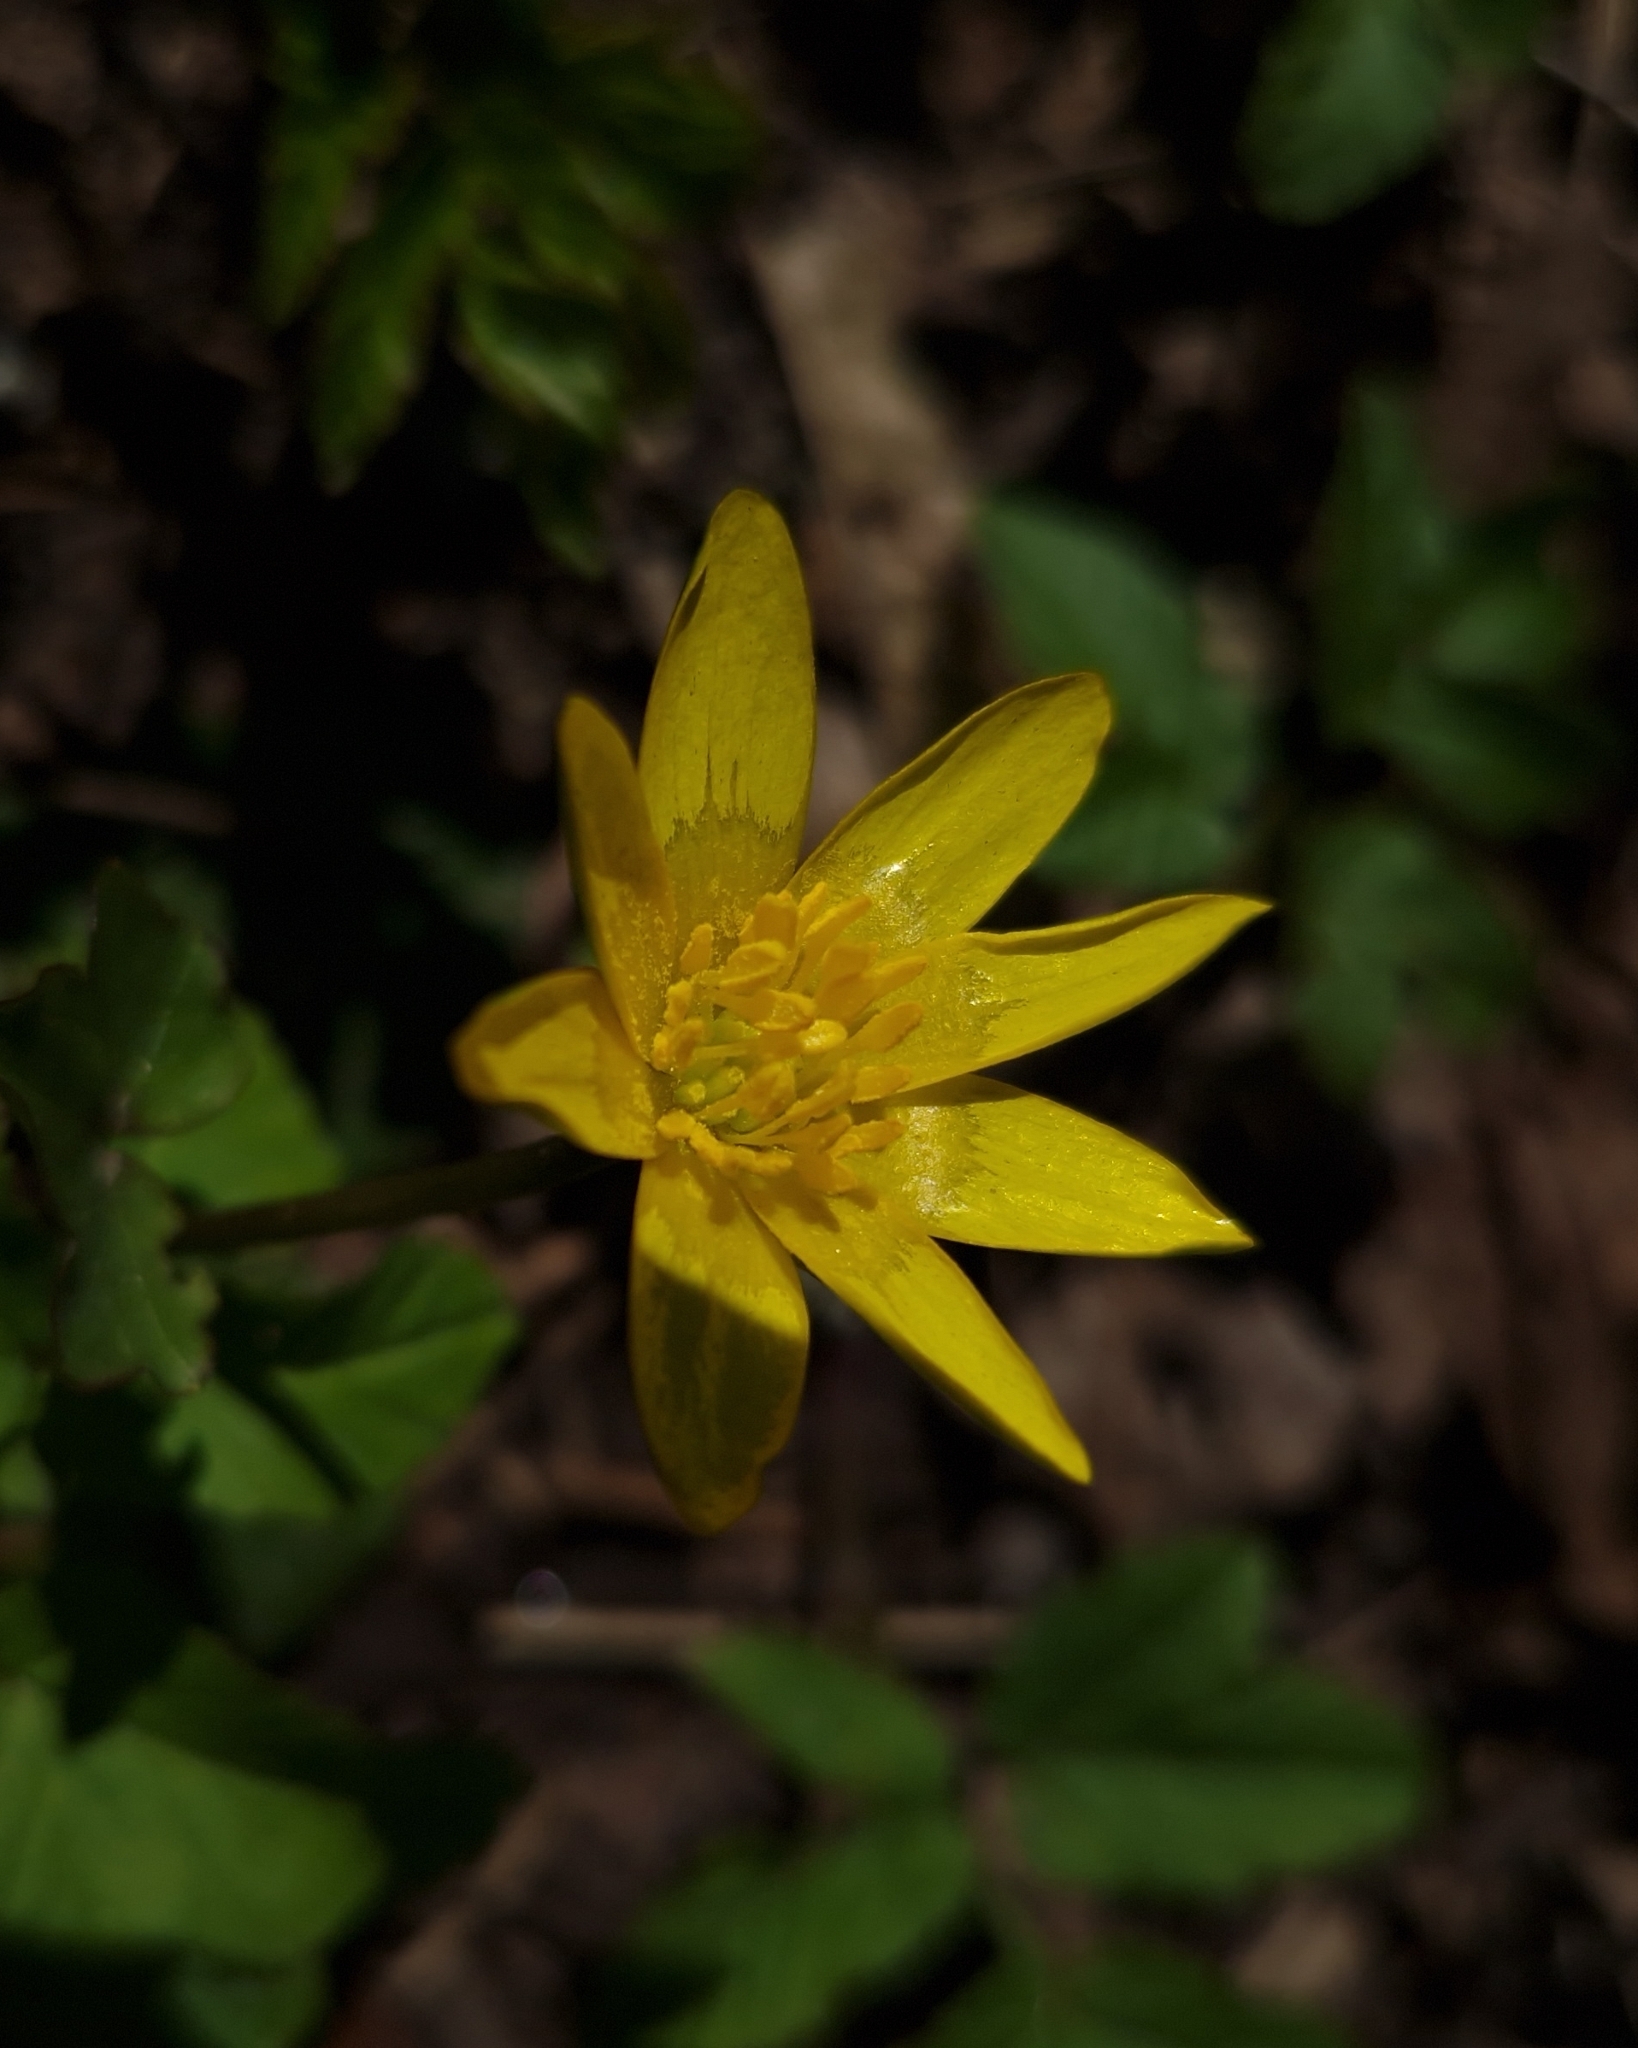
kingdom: Plantae
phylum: Tracheophyta
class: Magnoliopsida
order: Ranunculales
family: Ranunculaceae
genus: Ficaria
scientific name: Ficaria verna
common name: Lesser celandine
